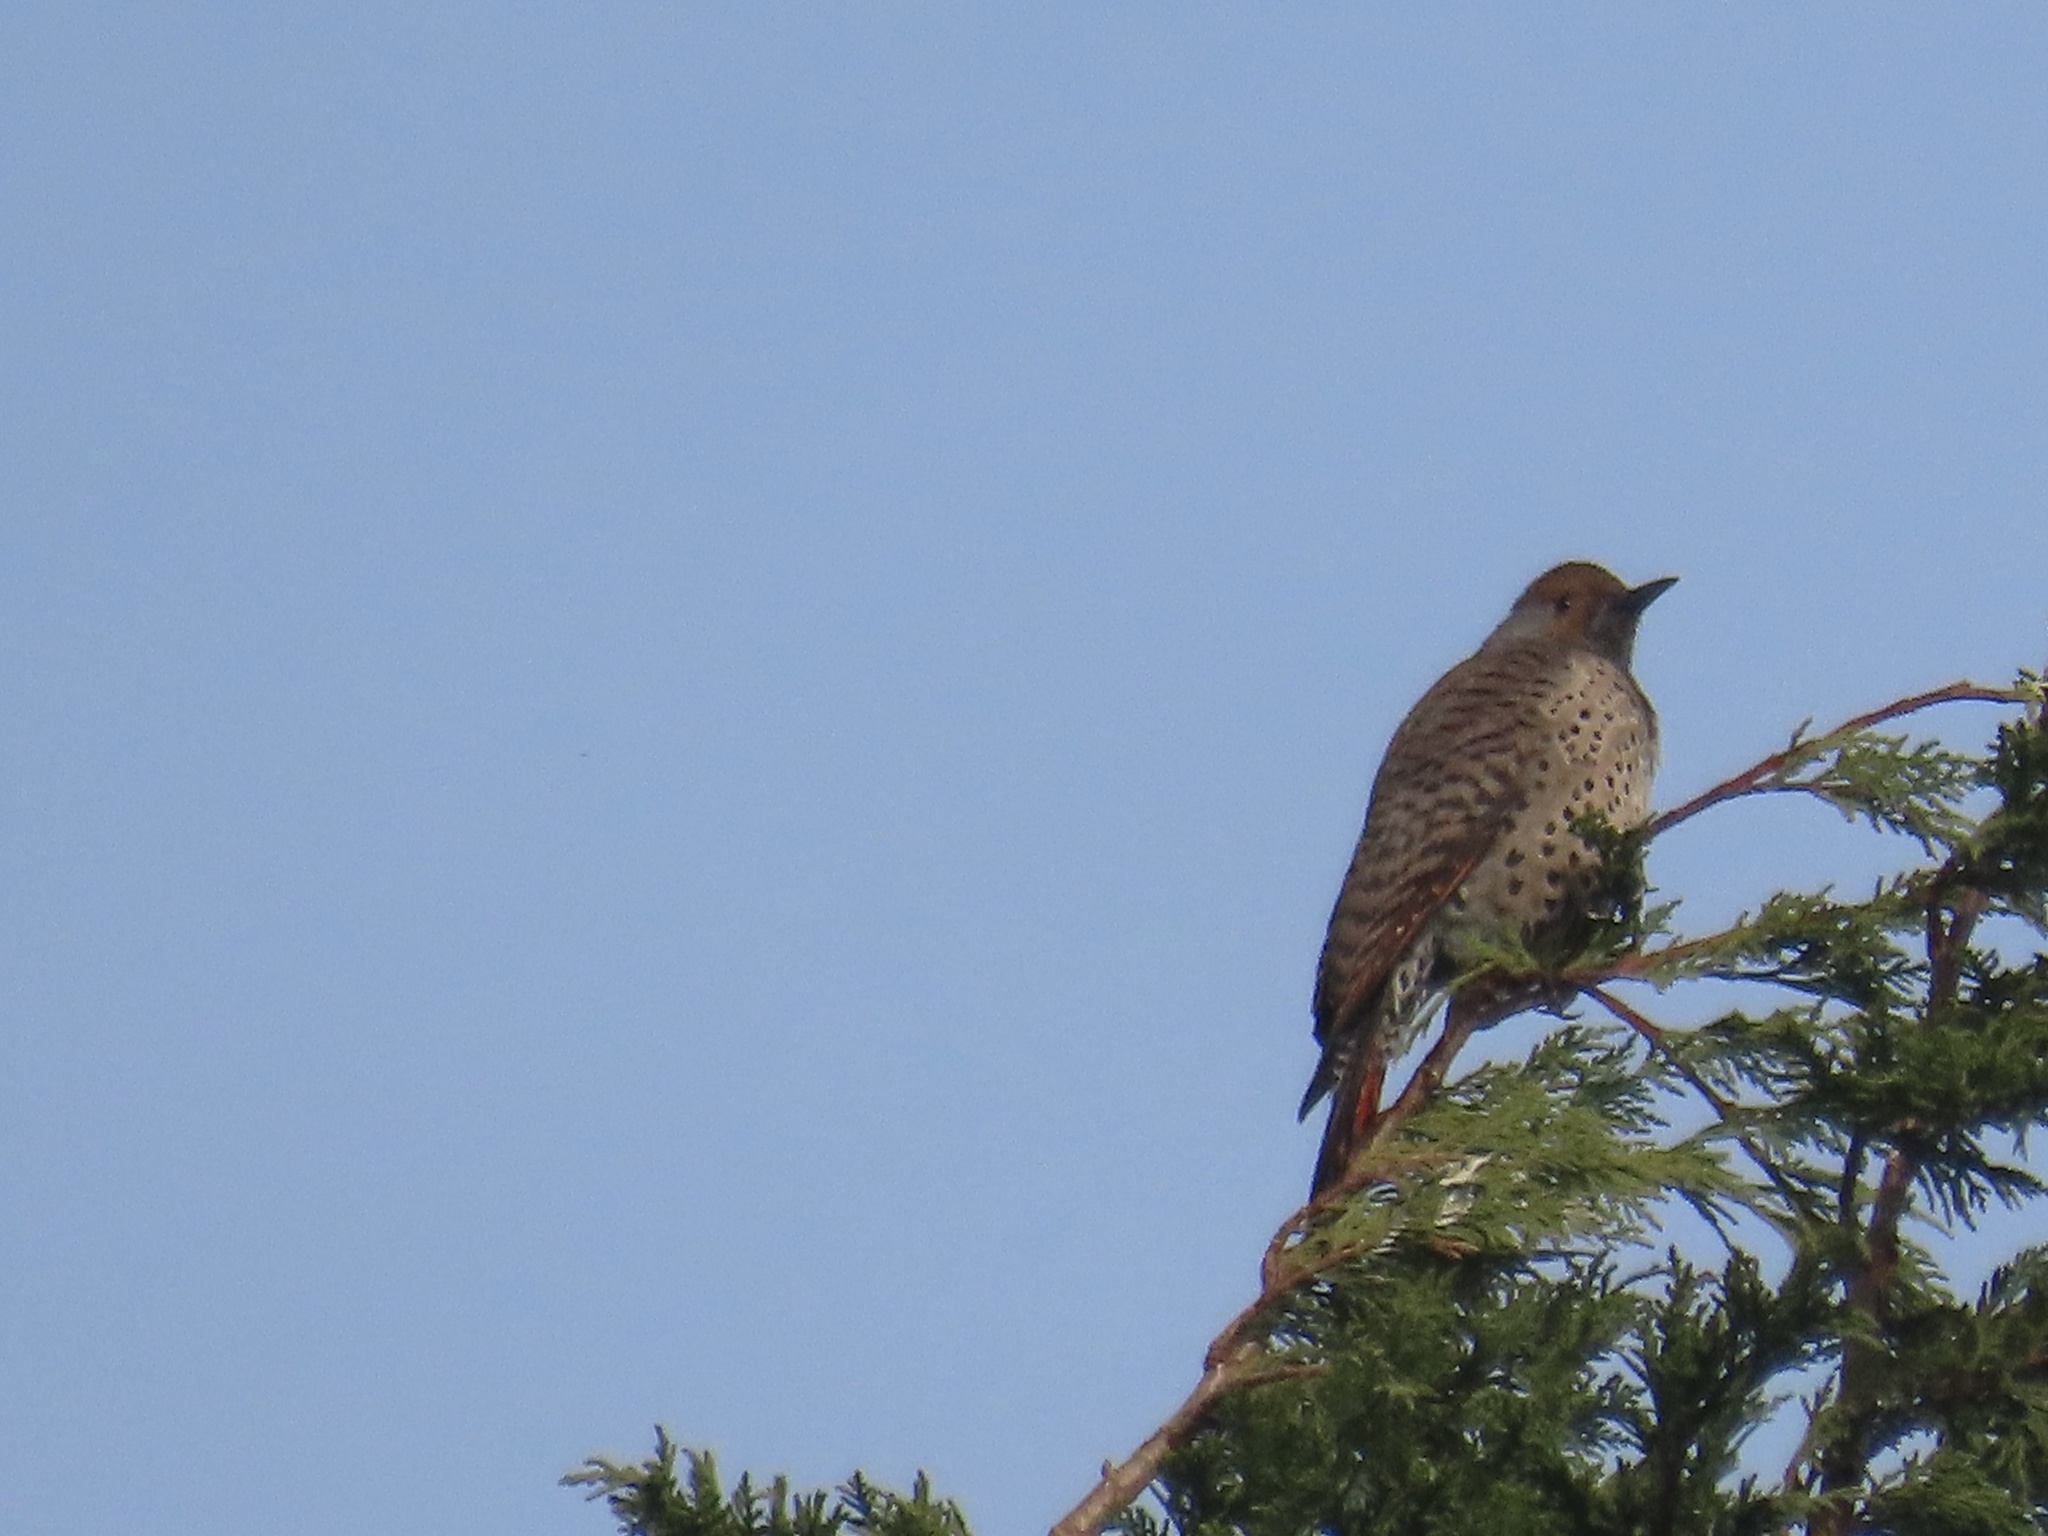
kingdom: Animalia
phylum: Chordata
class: Aves
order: Piciformes
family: Picidae
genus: Colaptes
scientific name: Colaptes auratus
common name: Northern flicker
